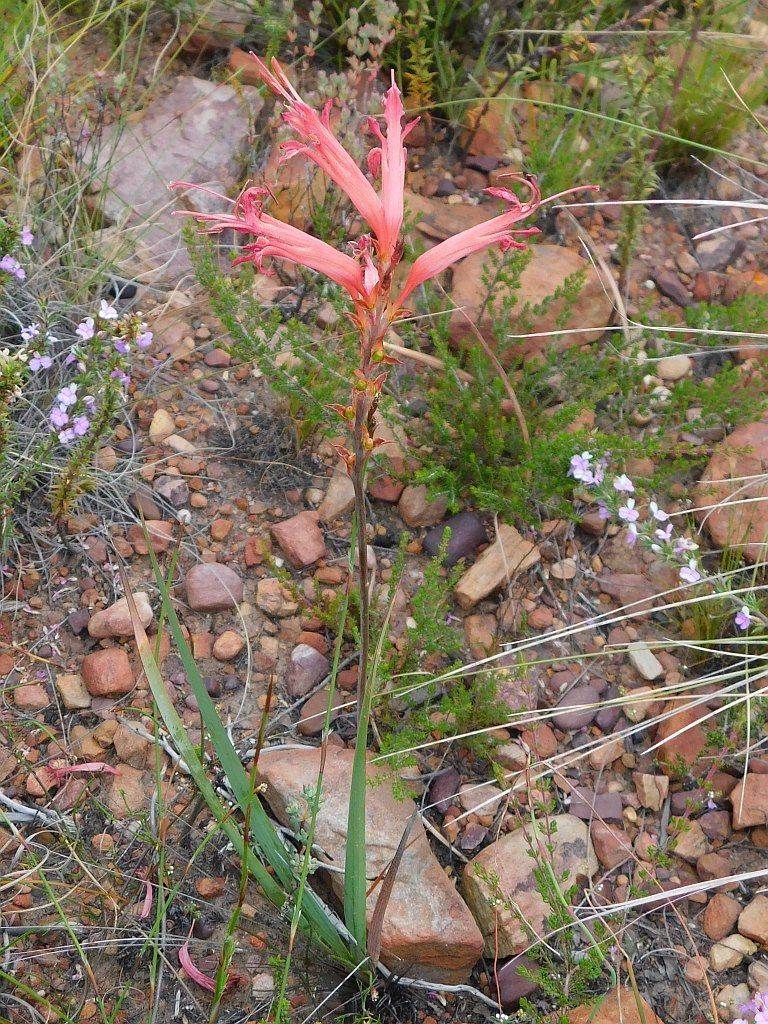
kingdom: Plantae
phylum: Tracheophyta
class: Liliopsida
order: Asparagales
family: Iridaceae
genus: Tritoniopsis
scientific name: Tritoniopsis antholyza
